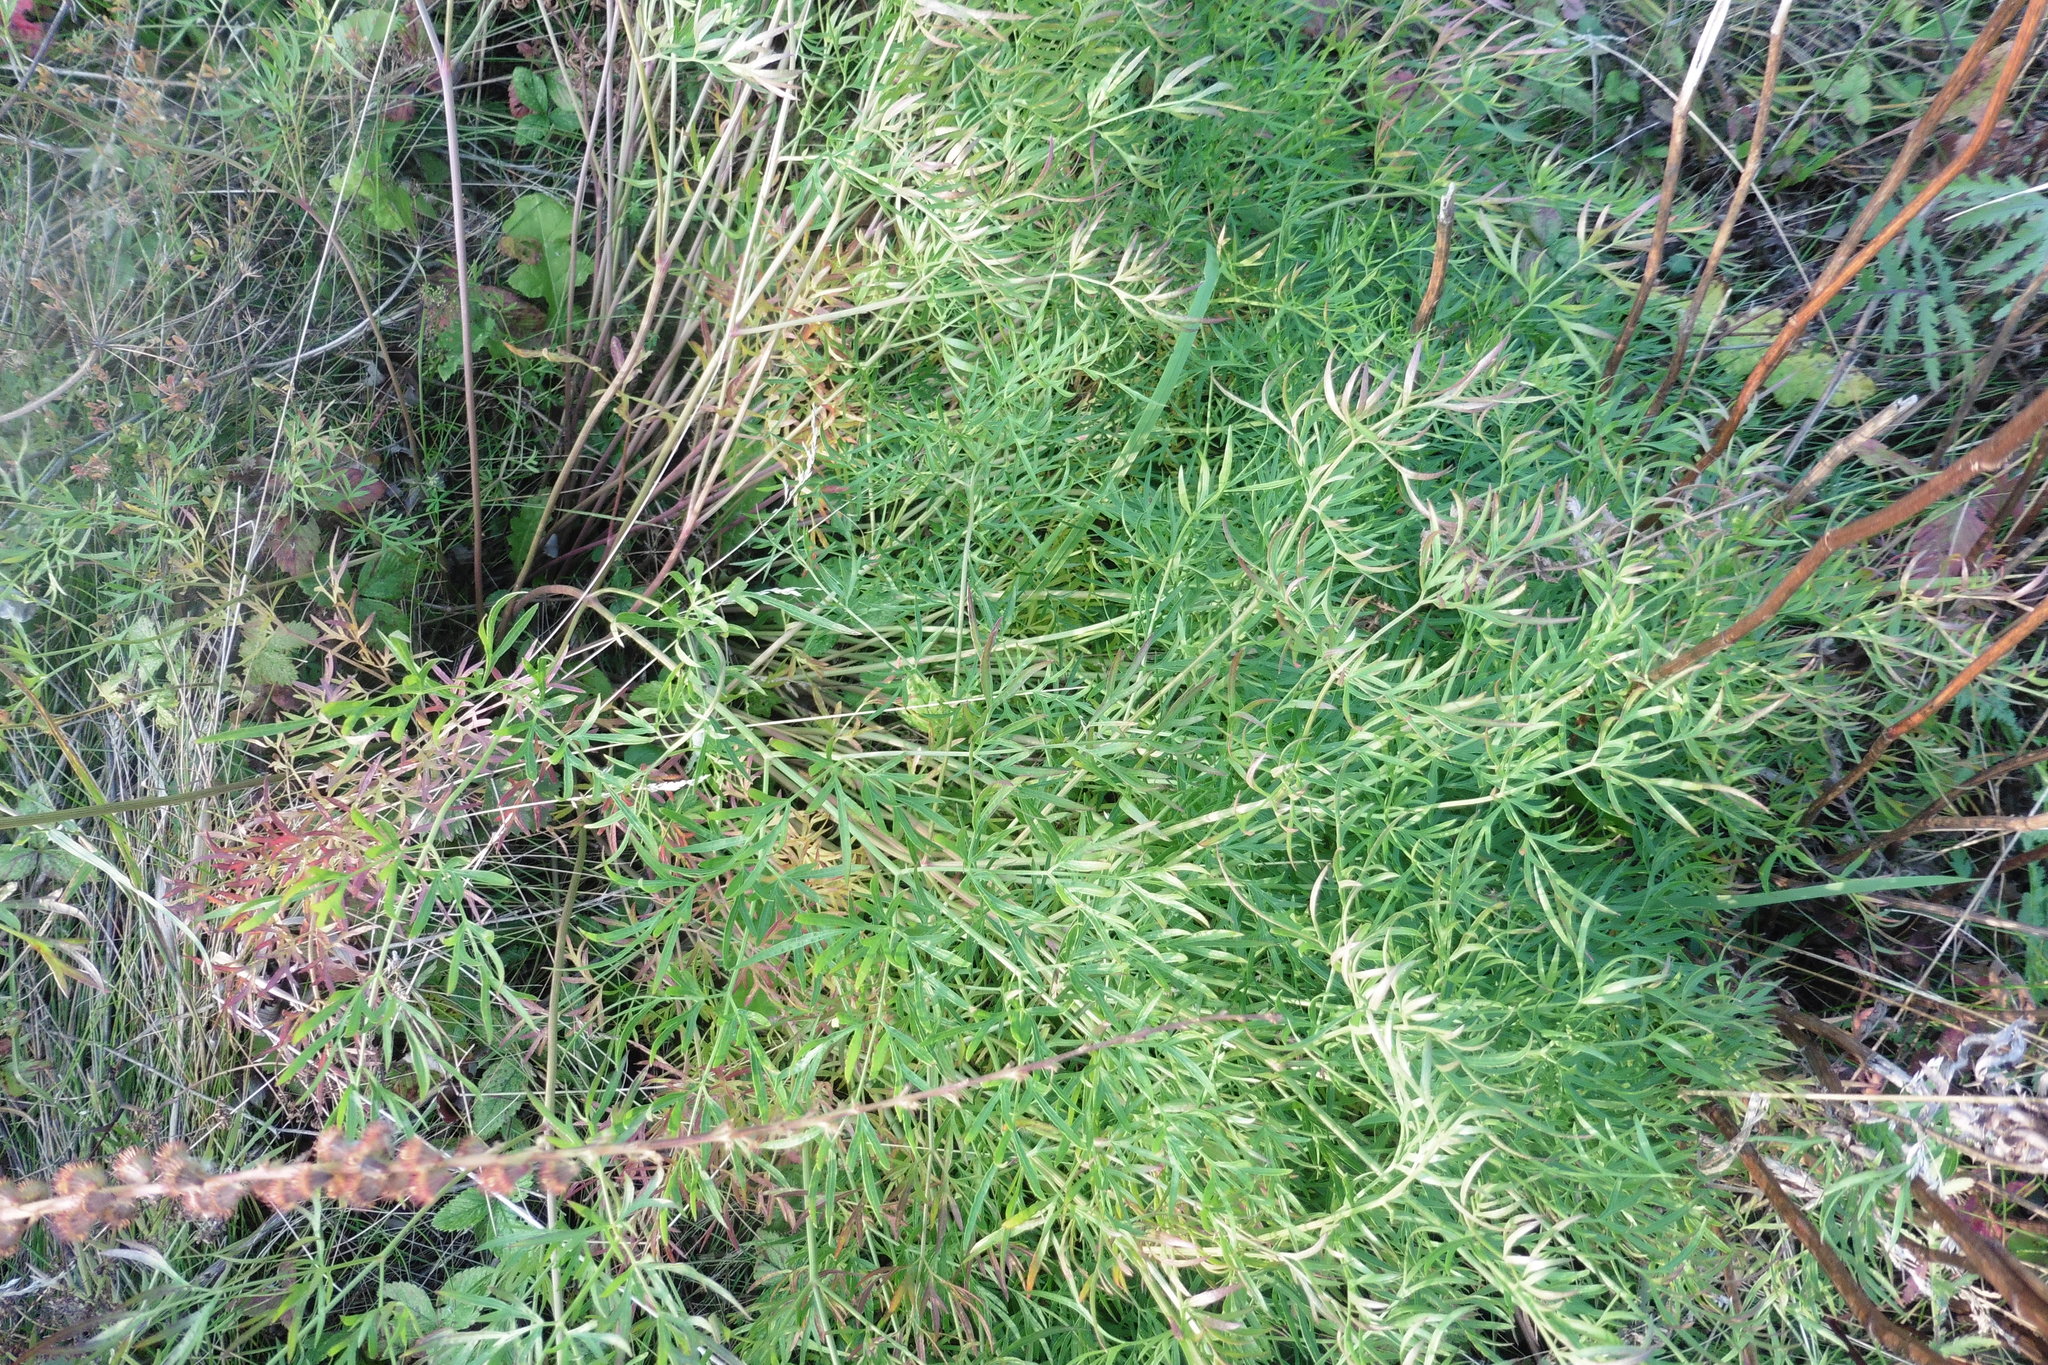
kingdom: Plantae
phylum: Tracheophyta
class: Magnoliopsida
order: Apiales
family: Apiaceae
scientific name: Apiaceae
